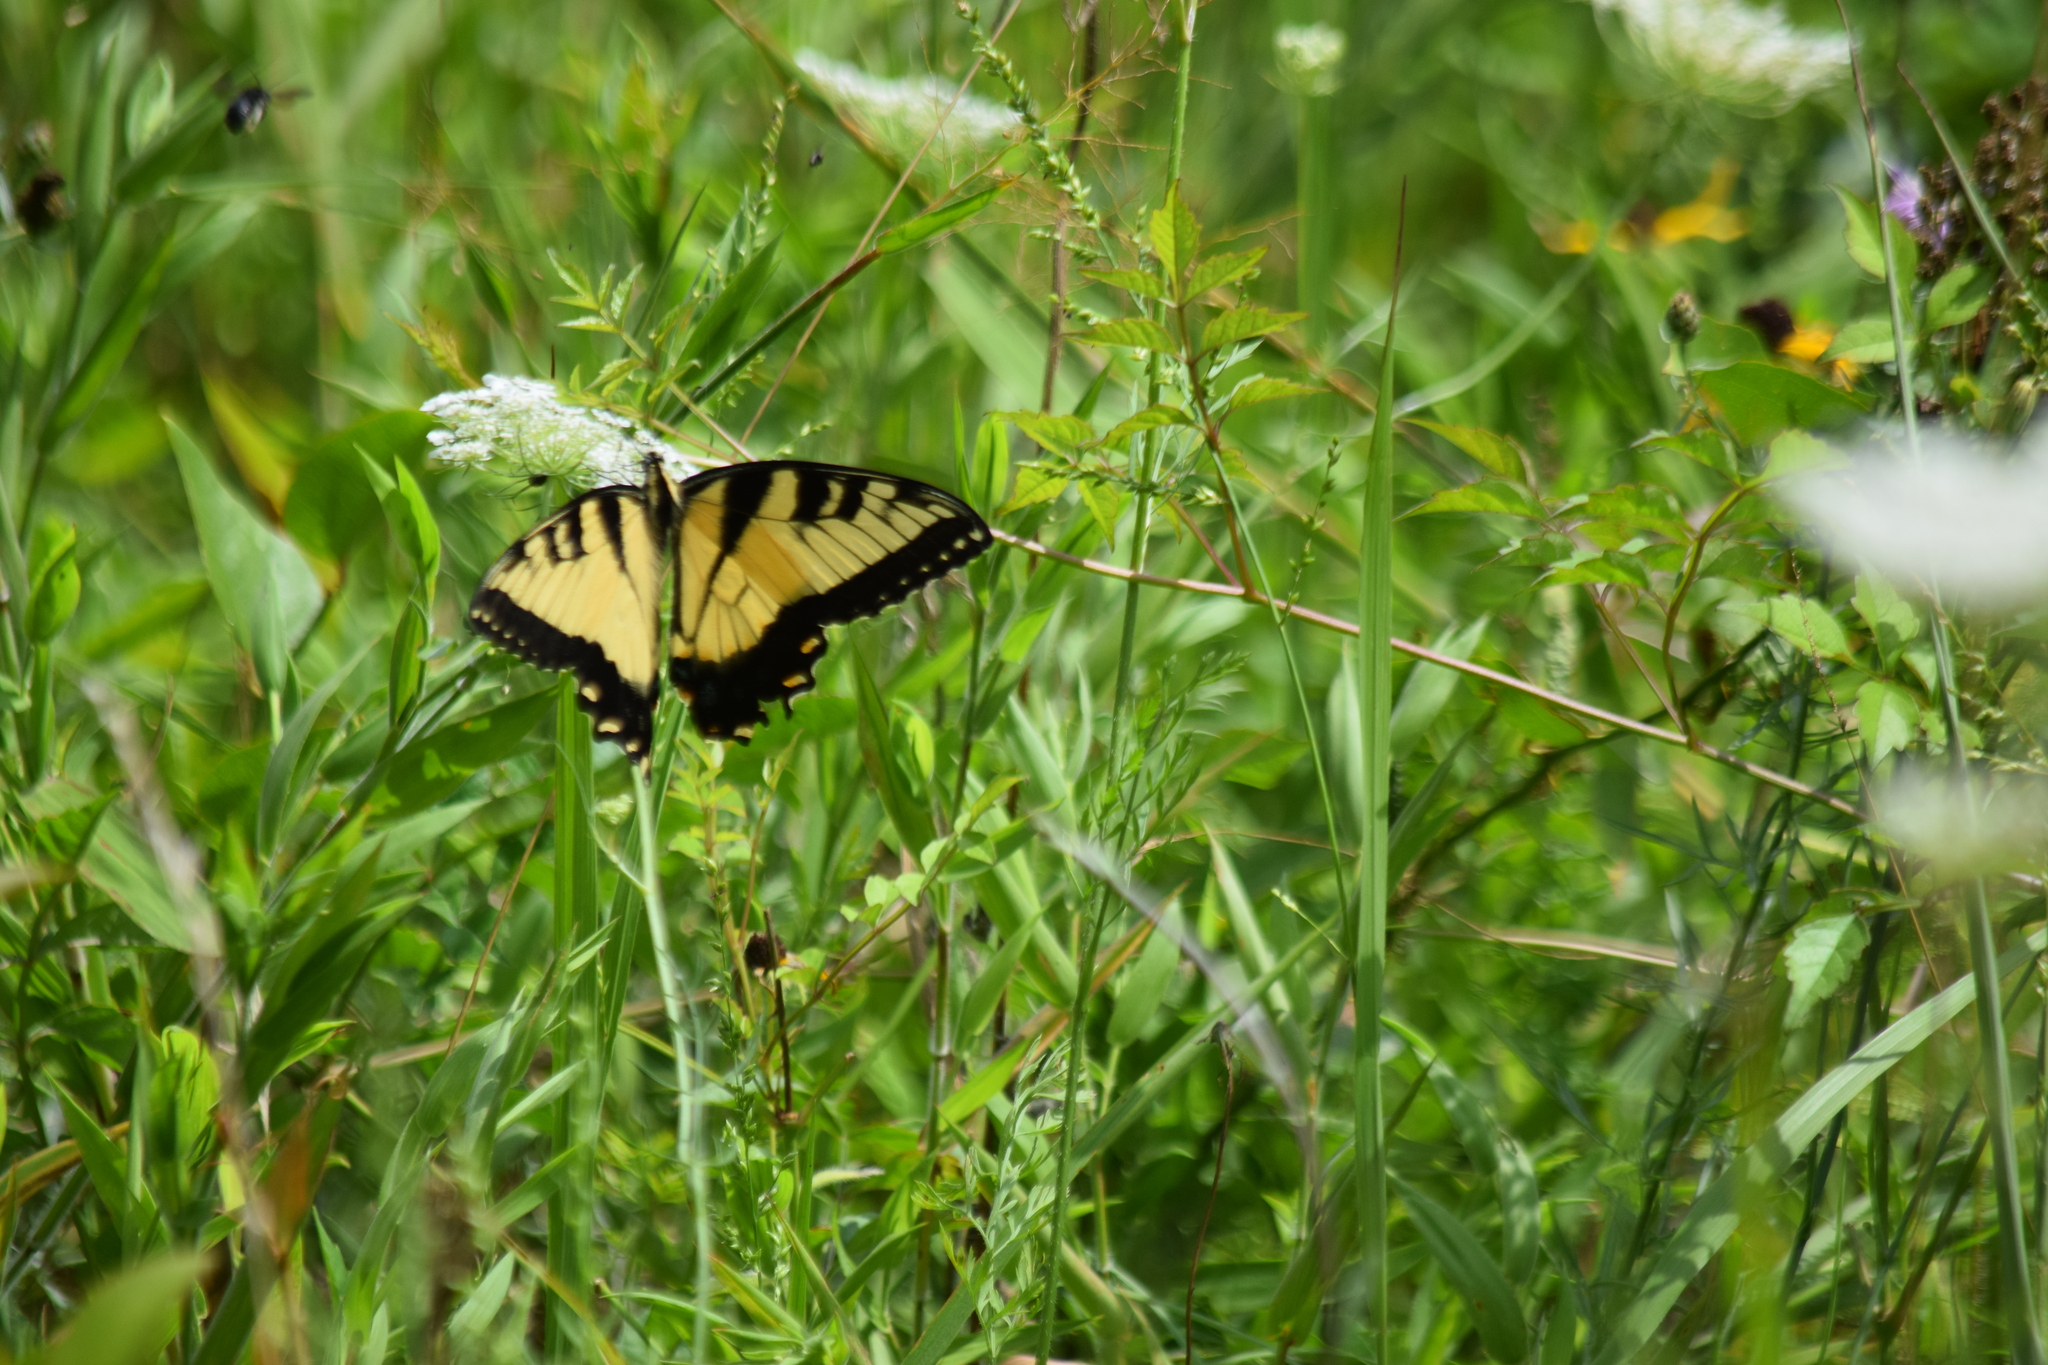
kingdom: Animalia
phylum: Arthropoda
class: Insecta
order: Lepidoptera
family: Papilionidae
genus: Papilio
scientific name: Papilio glaucus
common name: Tiger swallowtail
